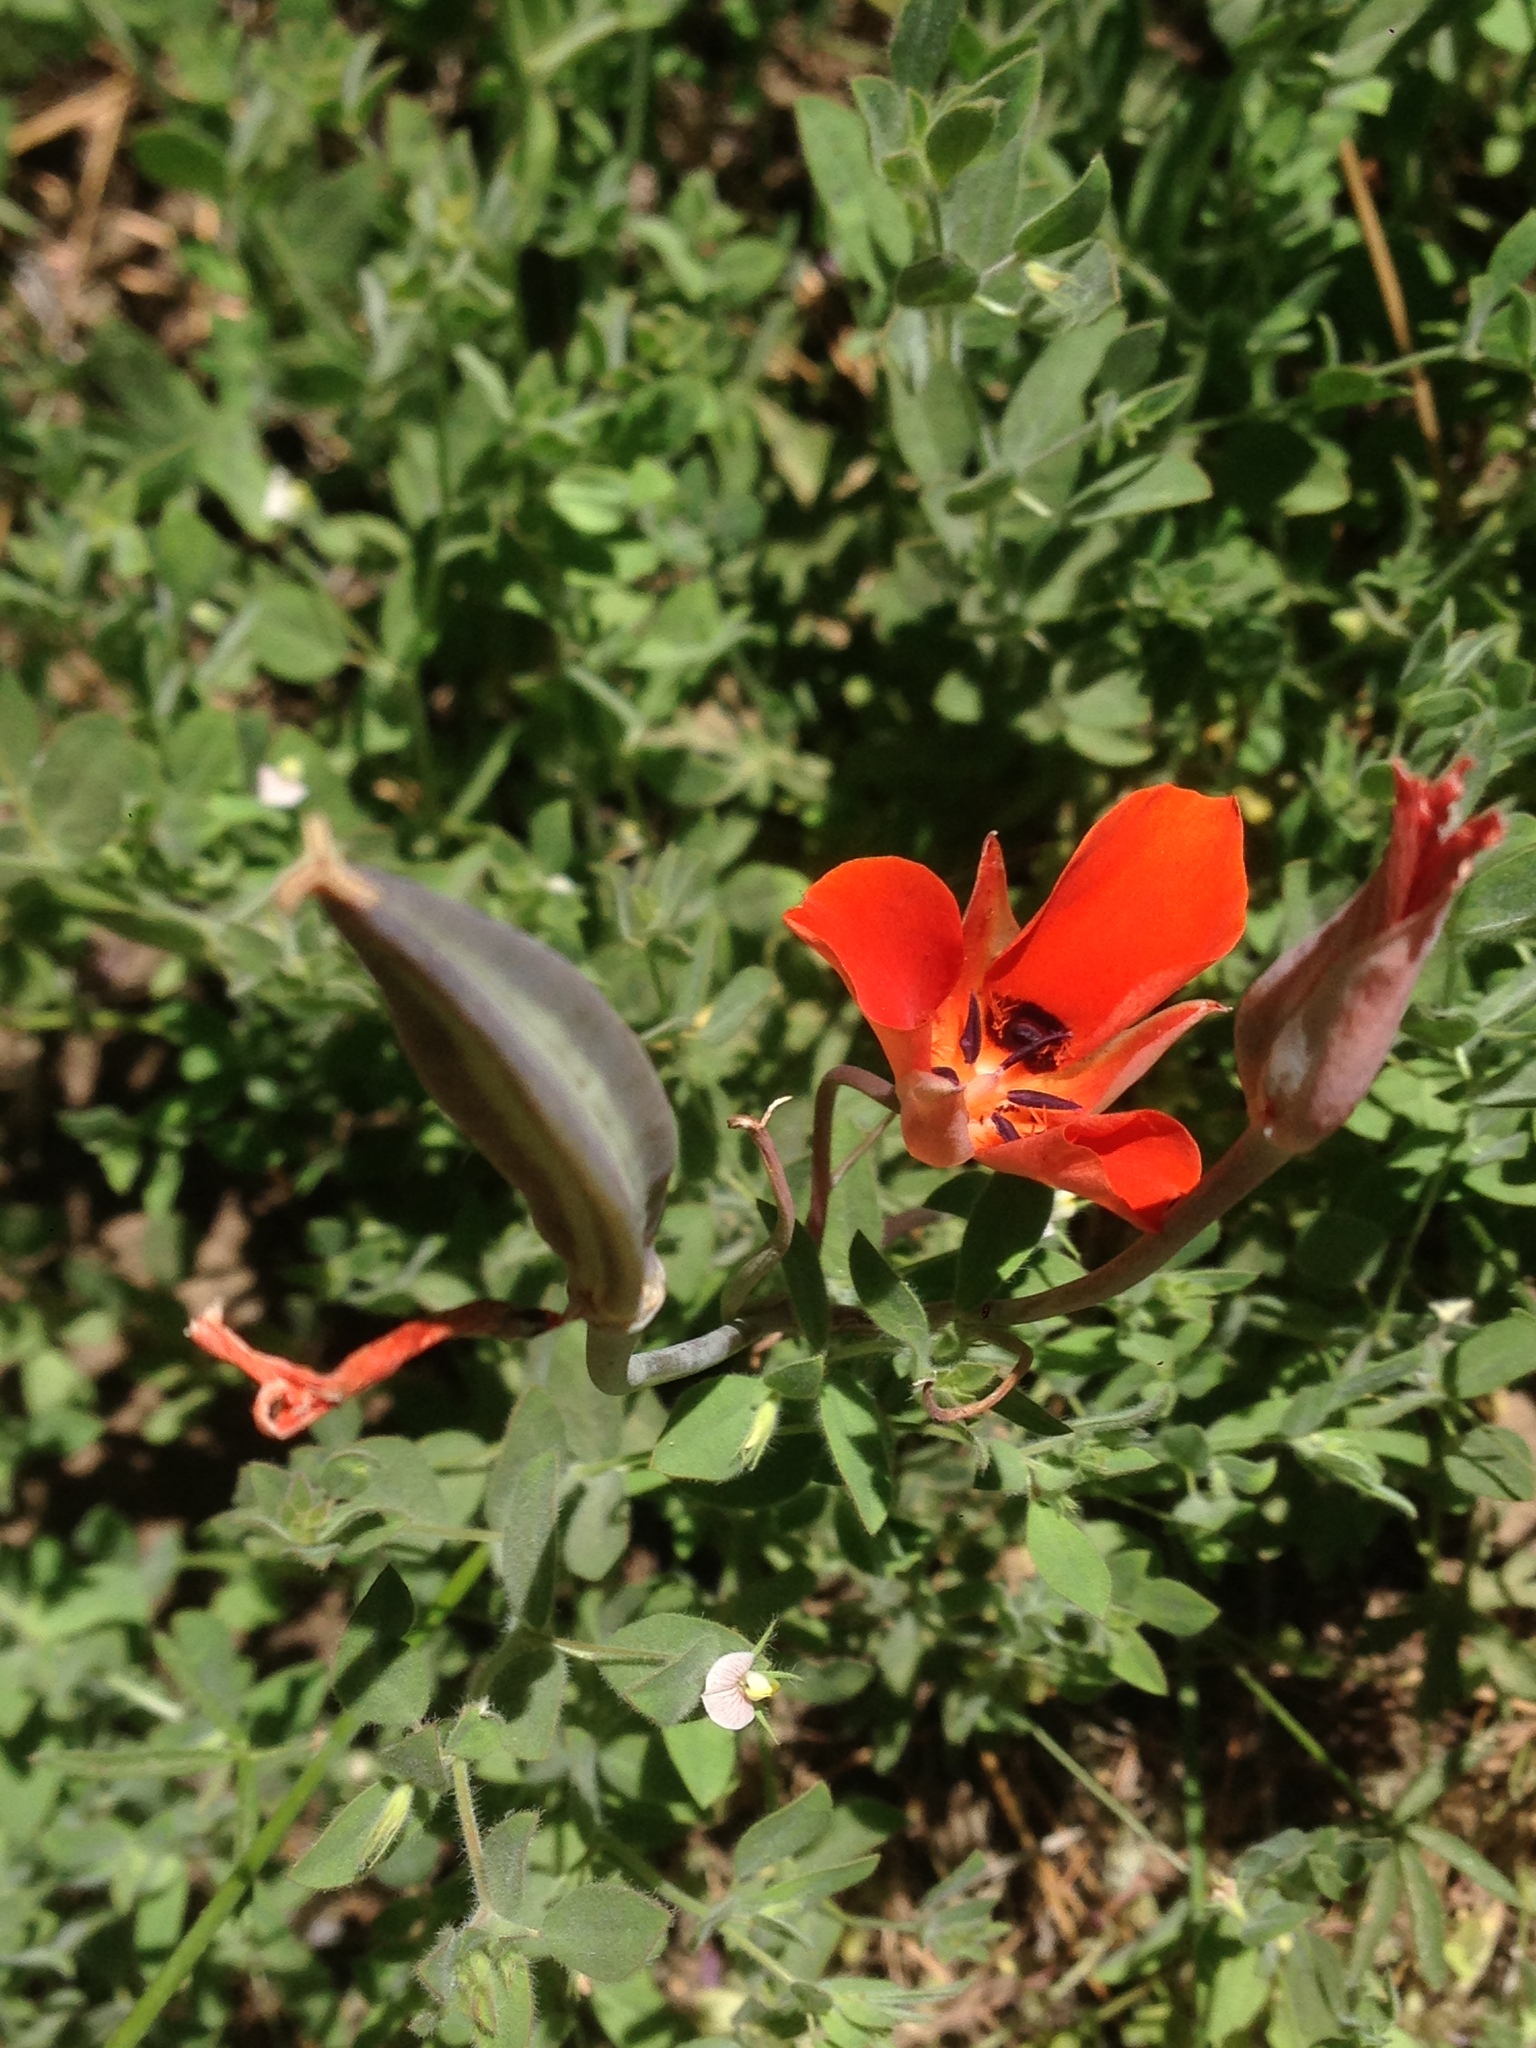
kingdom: Plantae
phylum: Tracheophyta
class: Liliopsida
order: Liliales
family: Liliaceae
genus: Calochortus
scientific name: Calochortus kennedyi
